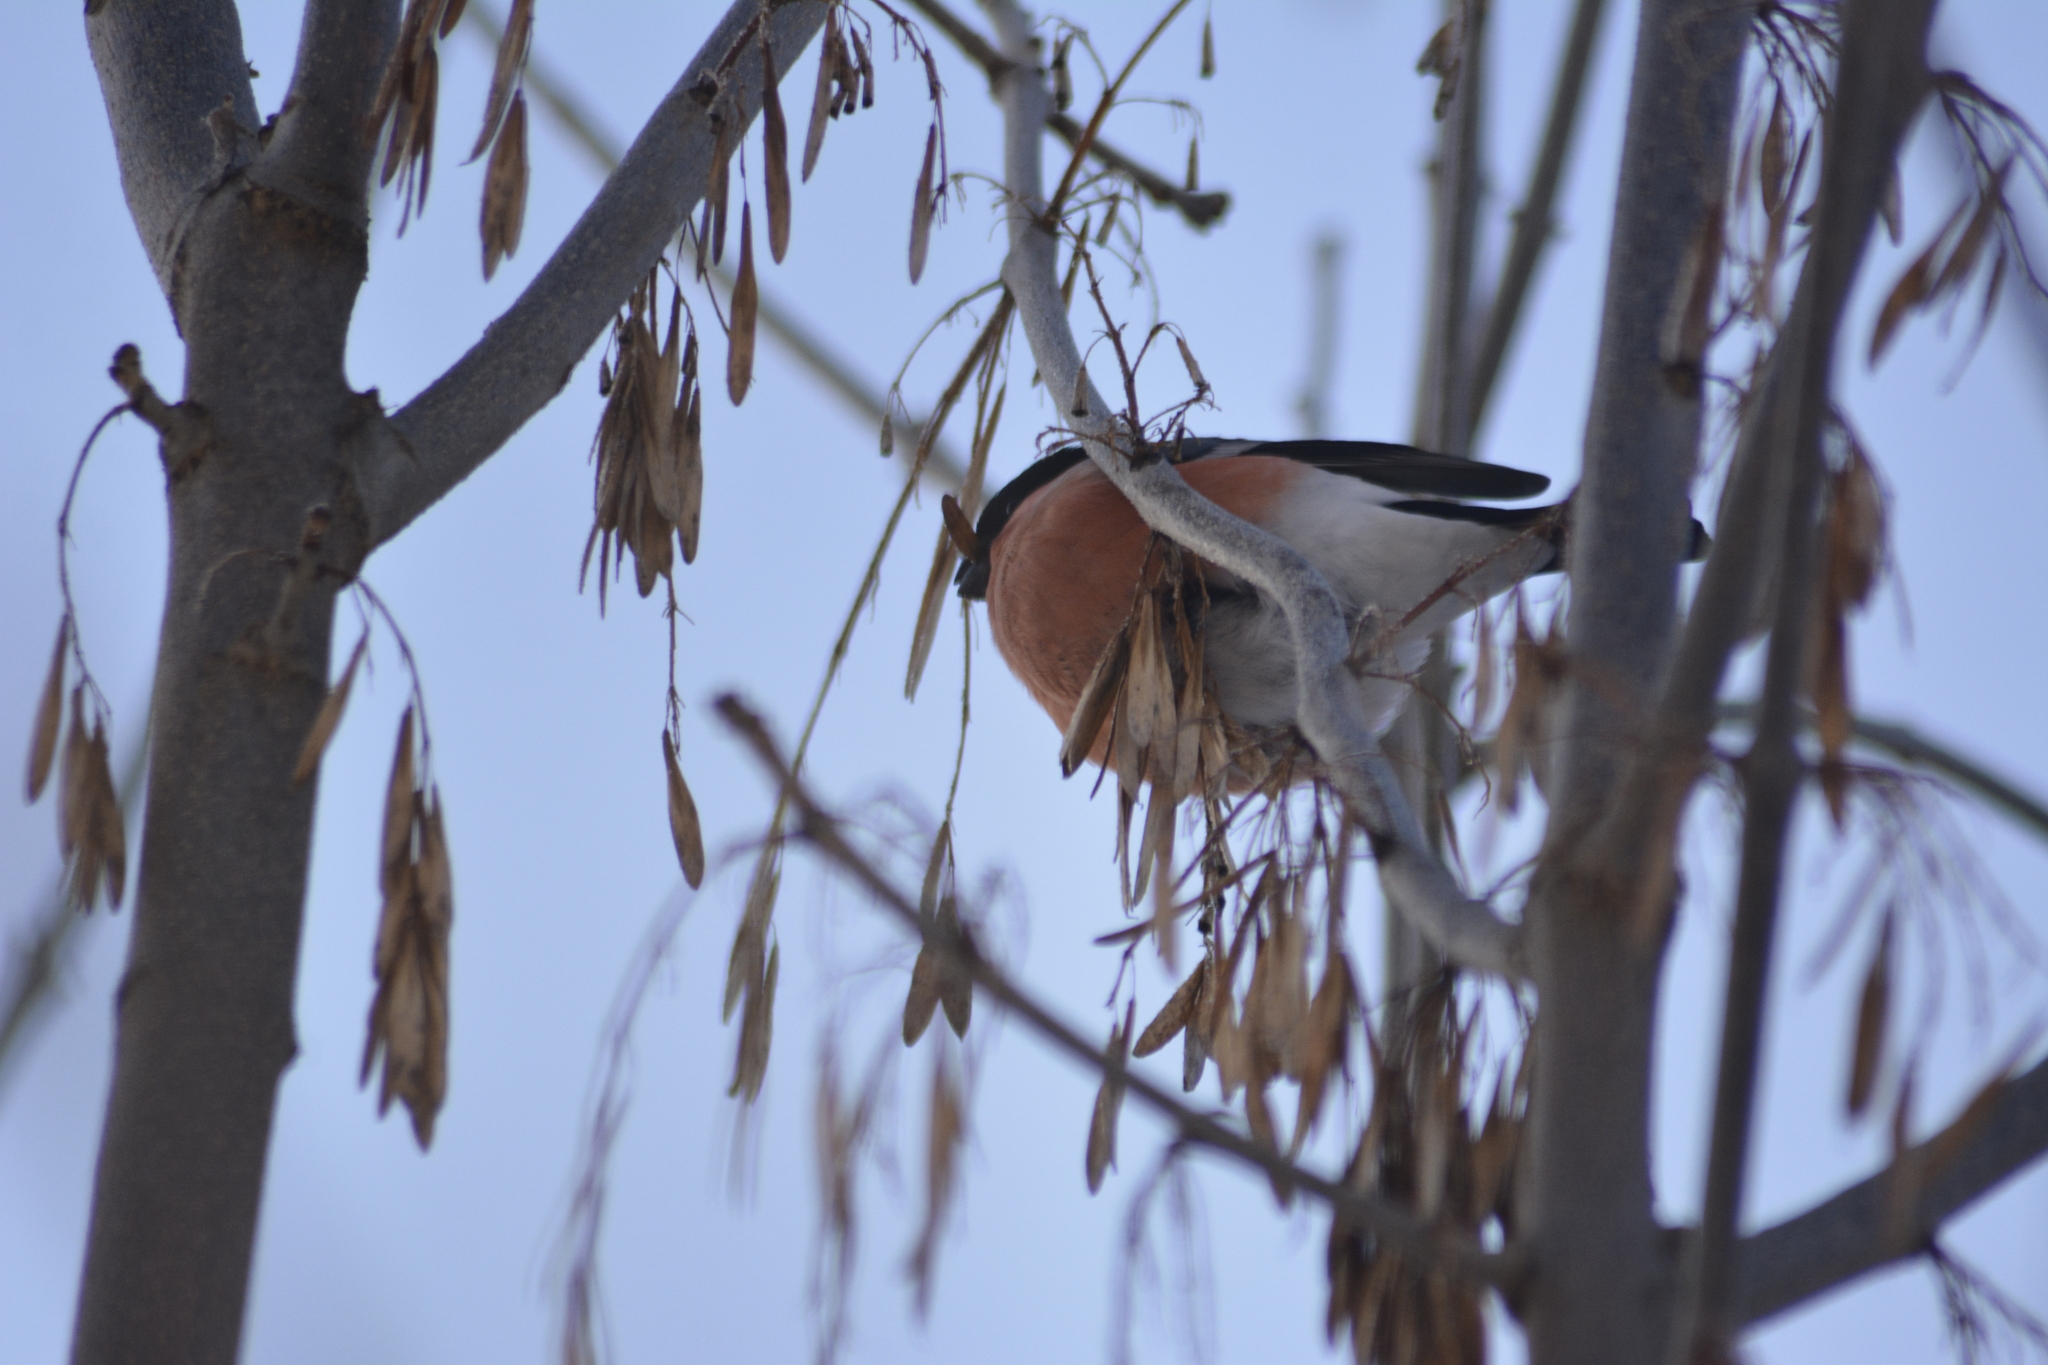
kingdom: Animalia
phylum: Chordata
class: Aves
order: Passeriformes
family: Fringillidae
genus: Pyrrhula
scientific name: Pyrrhula pyrrhula
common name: Eurasian bullfinch
